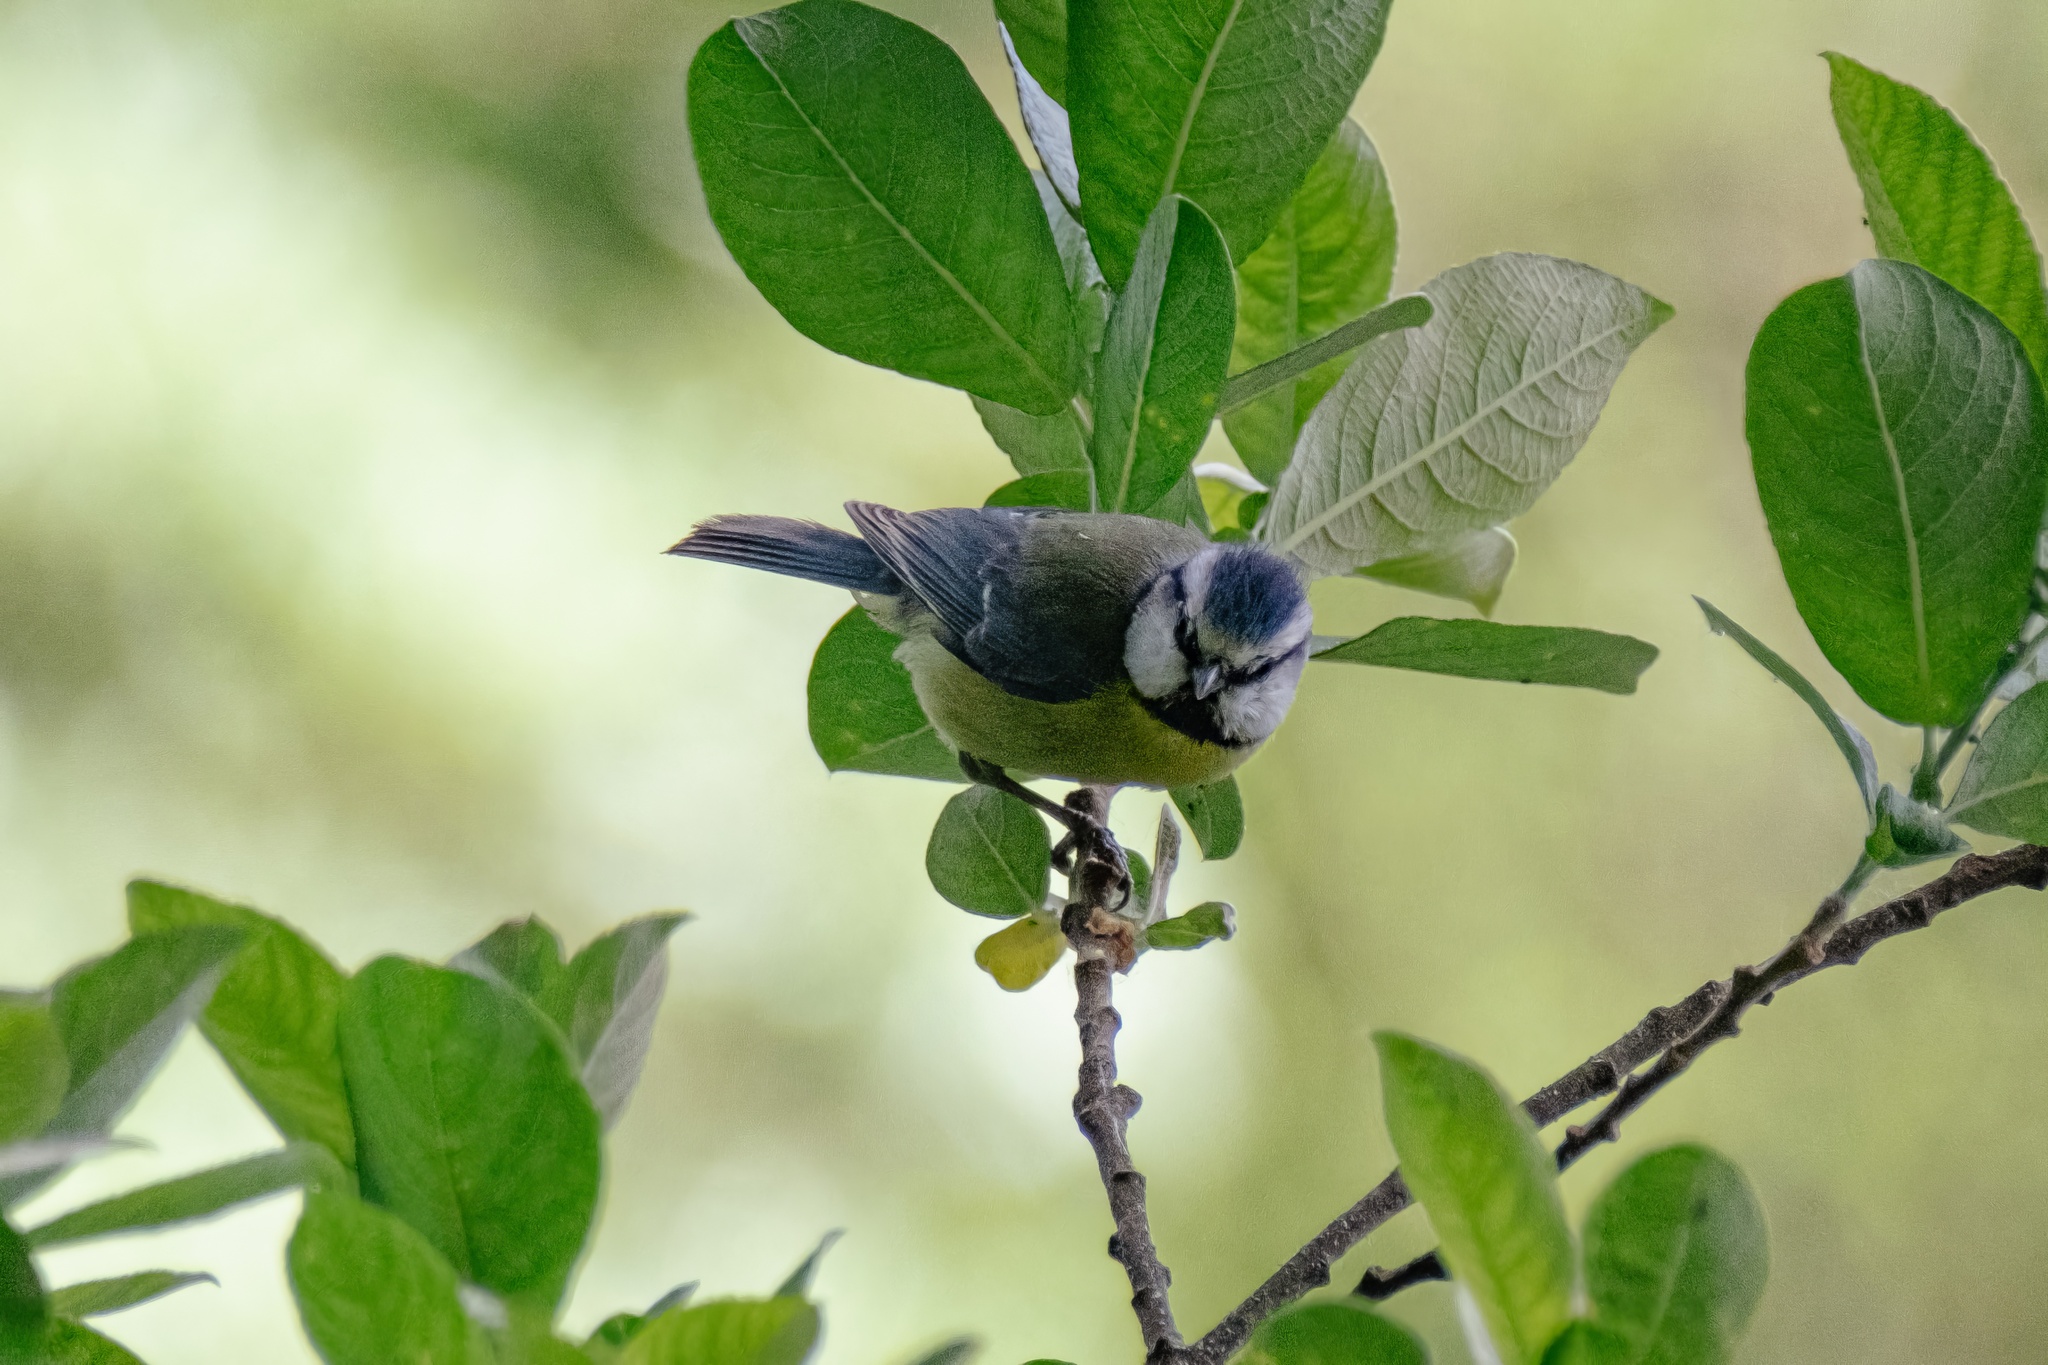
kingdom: Animalia
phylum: Chordata
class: Aves
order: Passeriformes
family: Paridae
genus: Cyanistes
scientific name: Cyanistes caeruleus
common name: Eurasian blue tit
